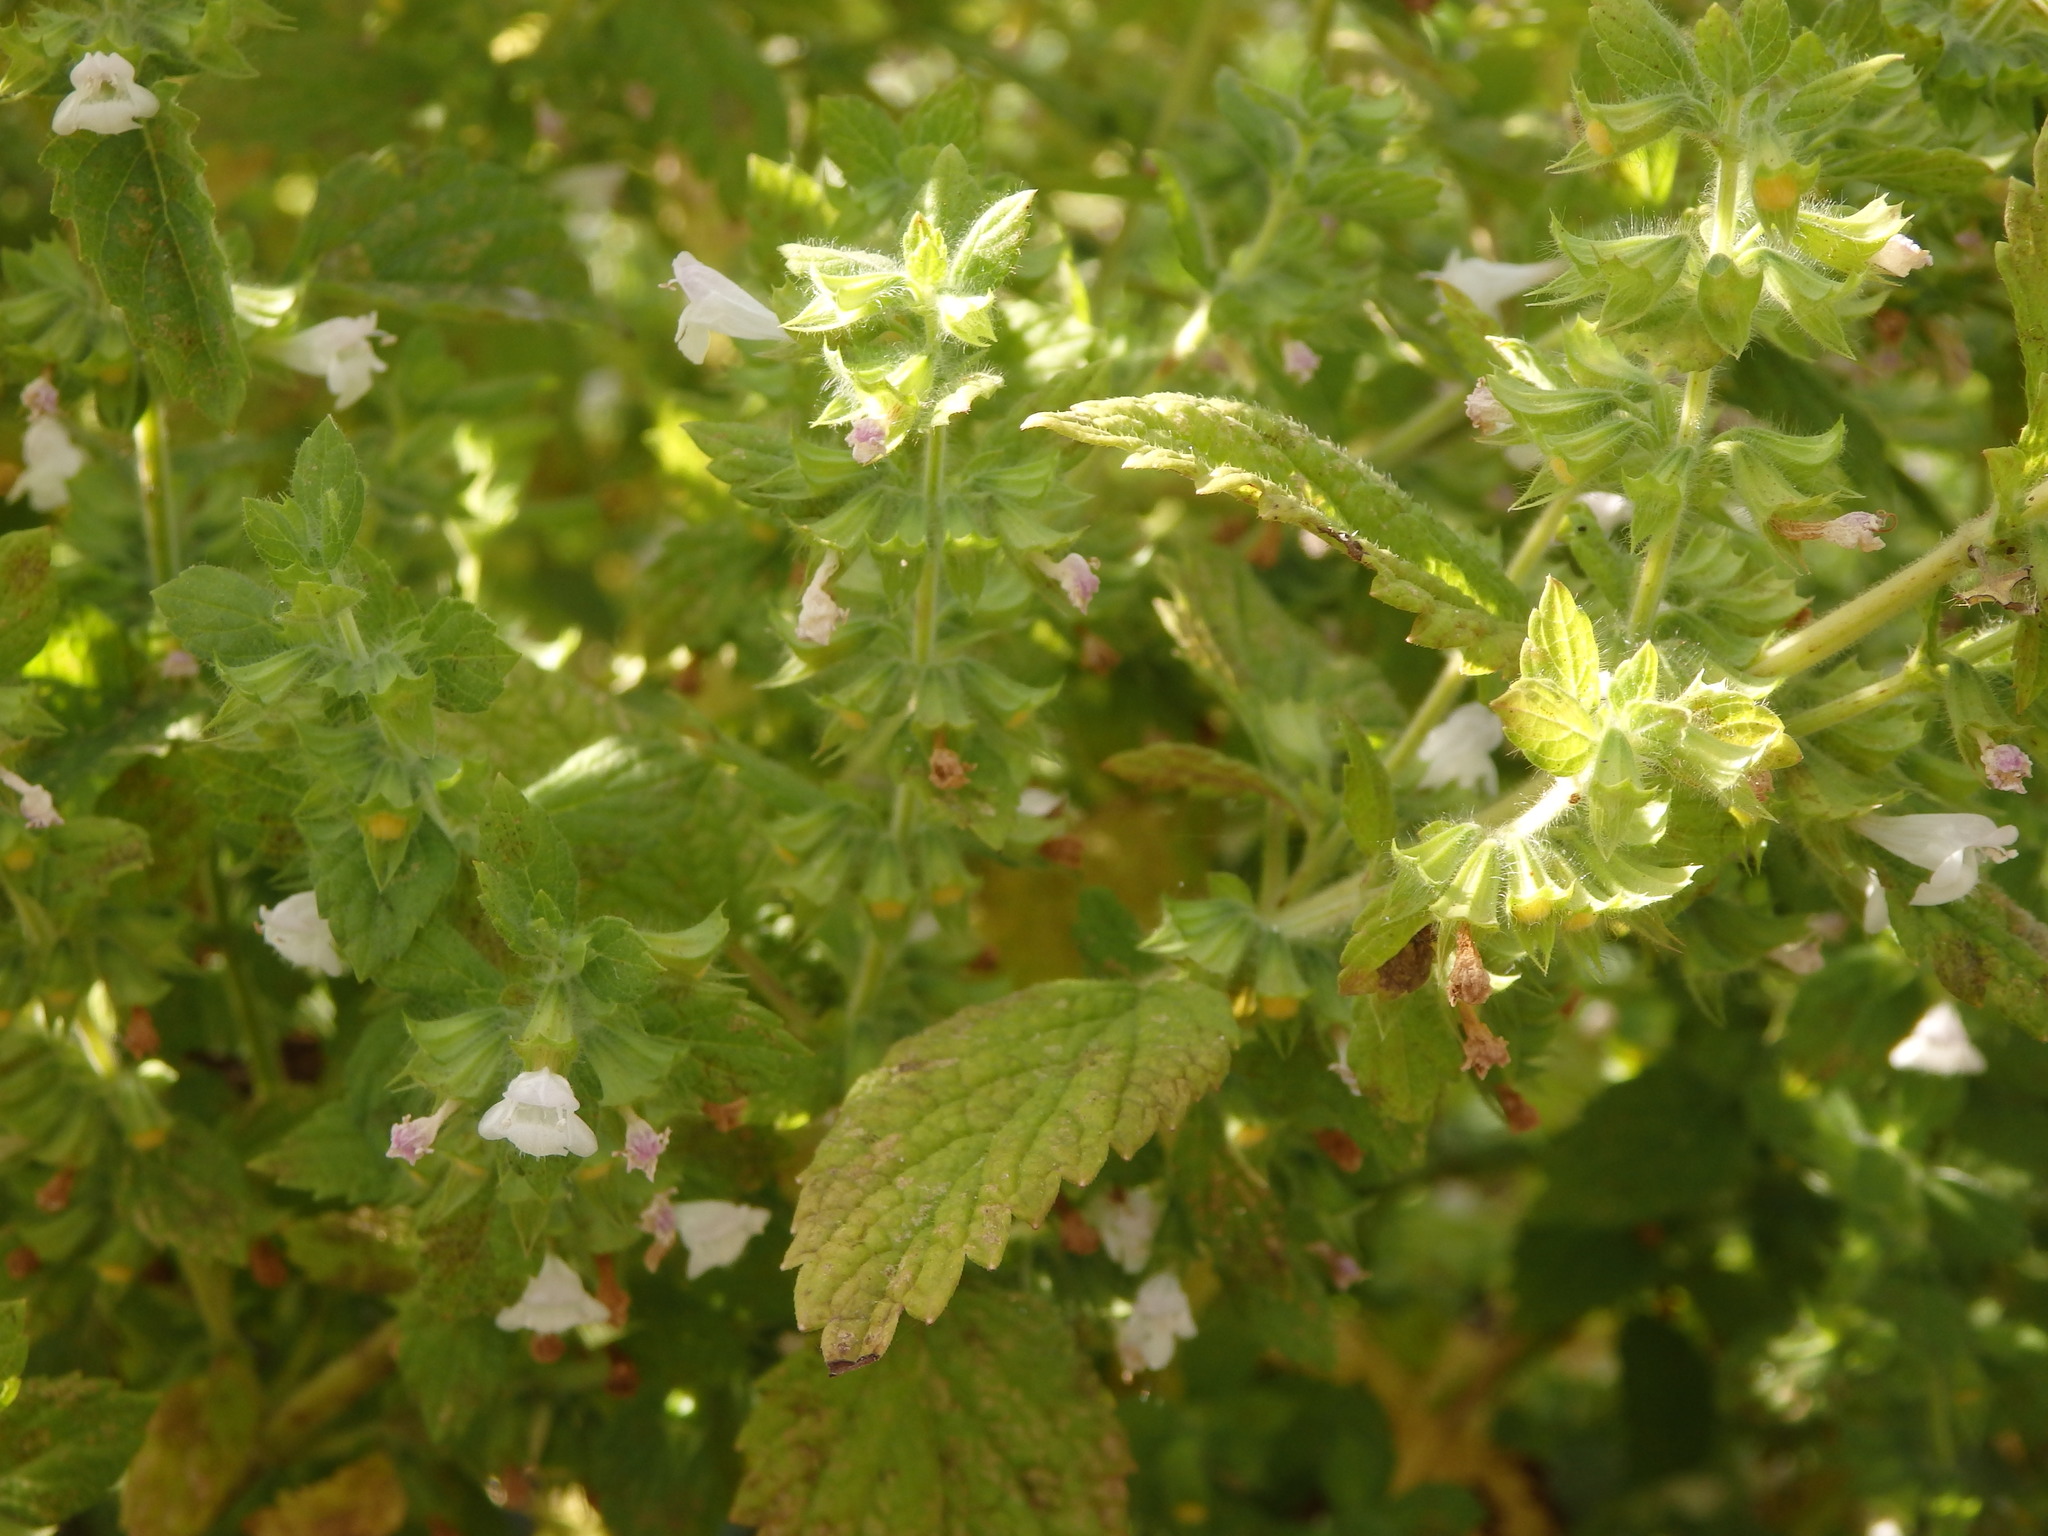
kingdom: Plantae
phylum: Tracheophyta
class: Magnoliopsida
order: Lamiales
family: Lamiaceae
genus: Melissa
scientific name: Melissa officinalis
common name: Balm
